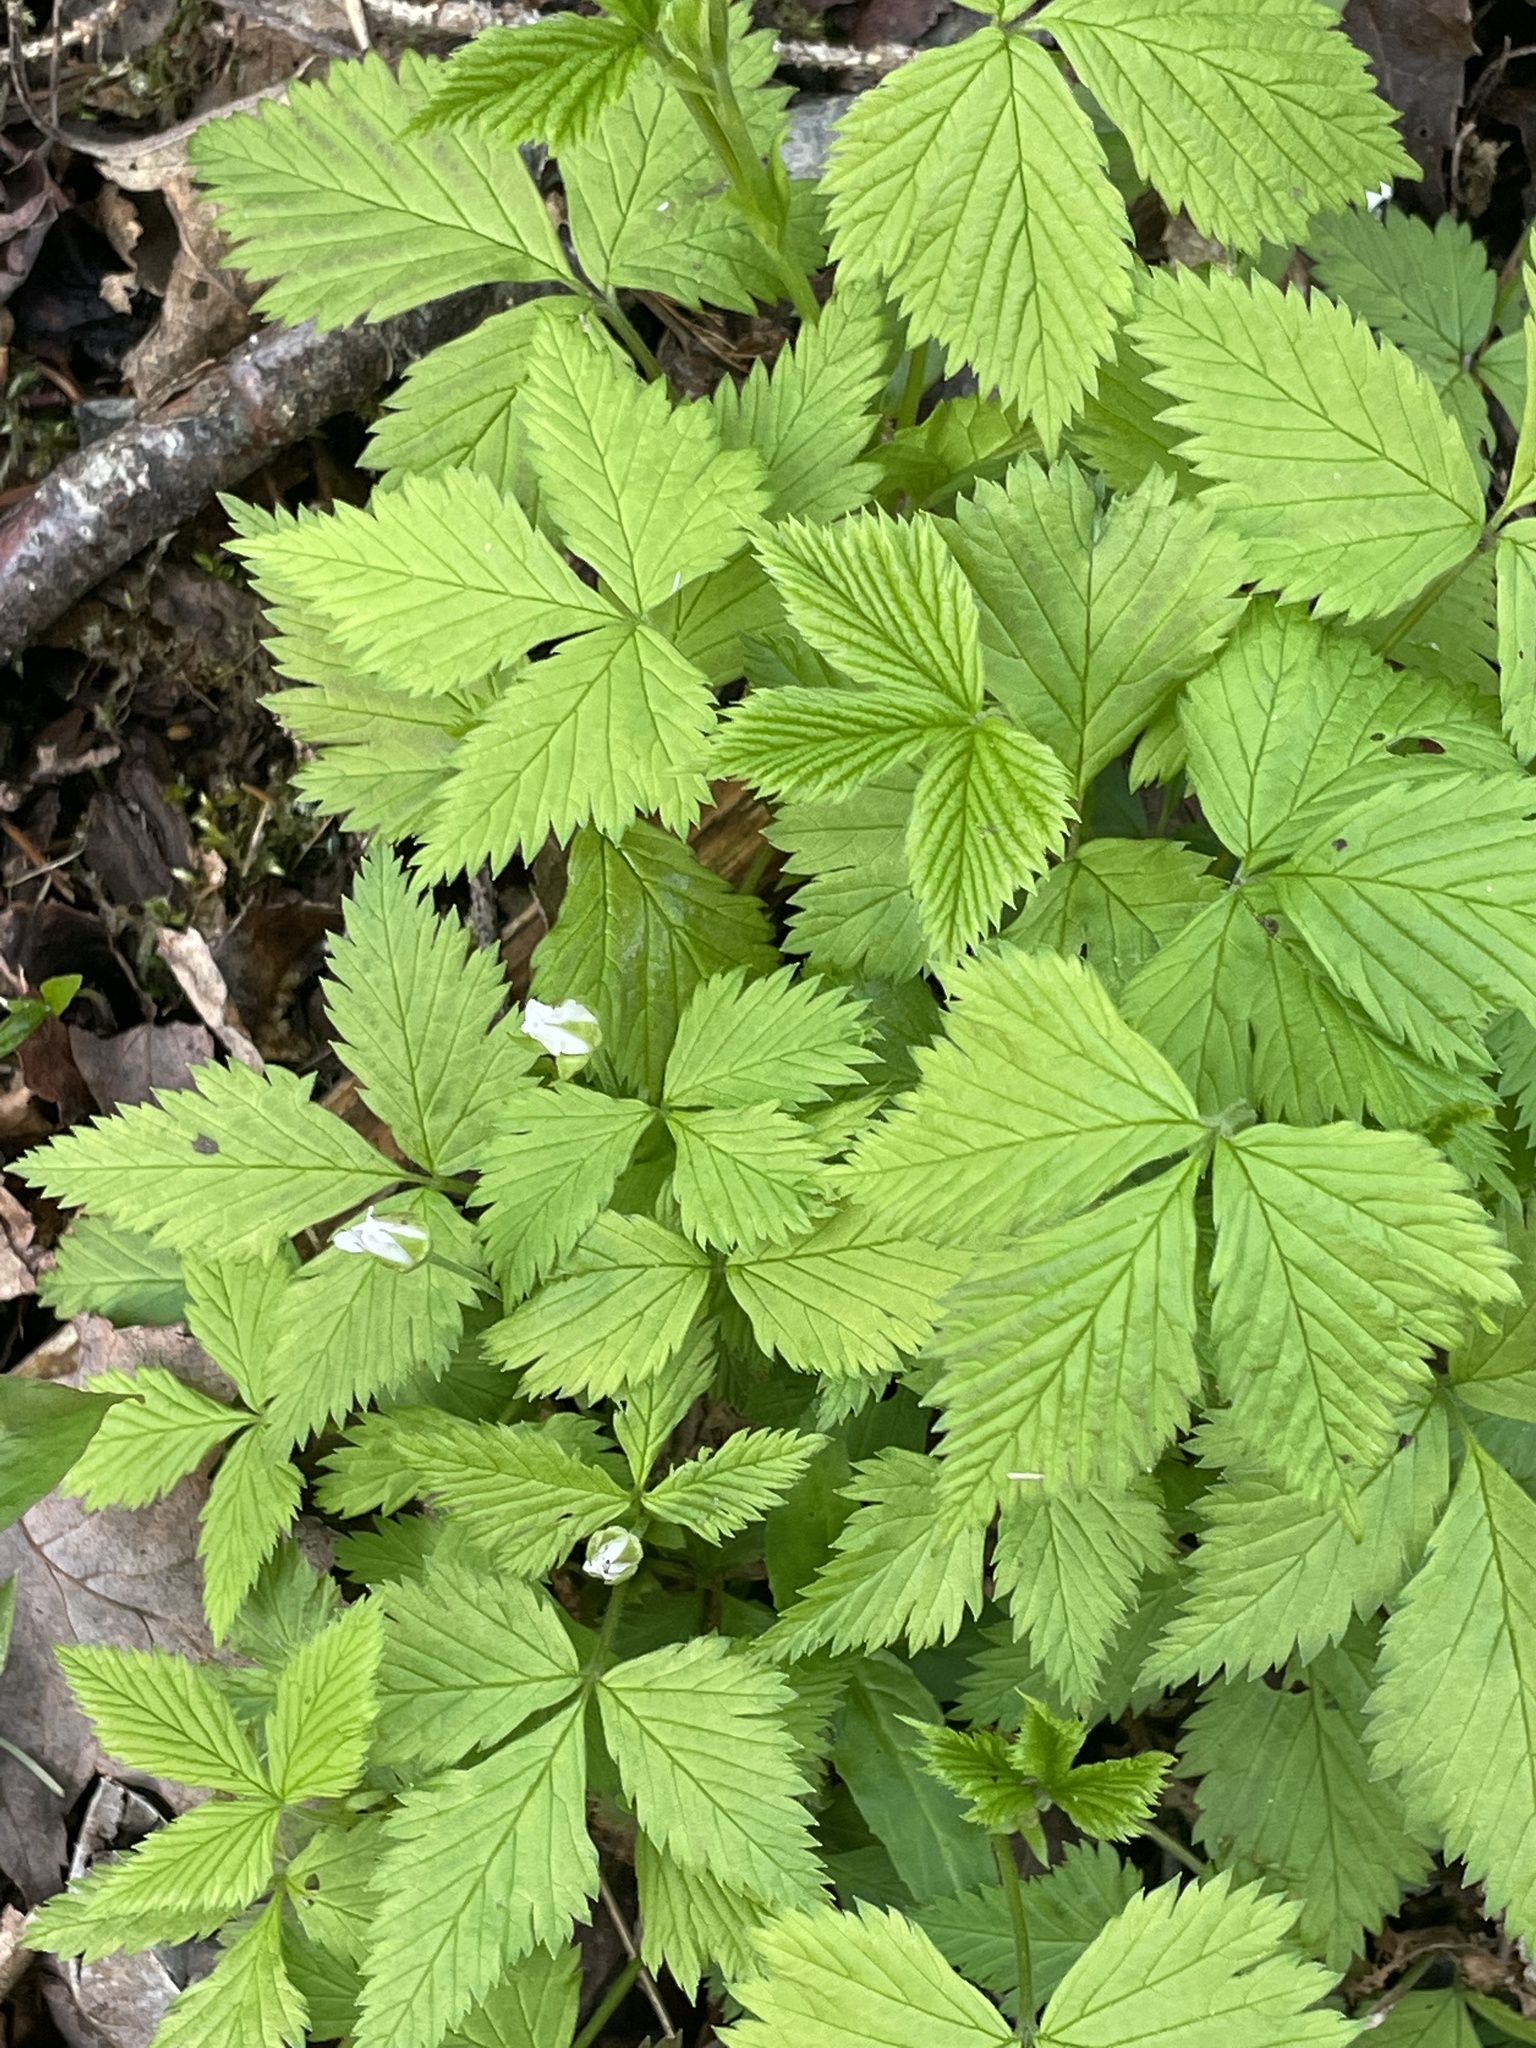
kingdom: Plantae
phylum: Tracheophyta
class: Magnoliopsida
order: Rosales
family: Rosaceae
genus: Rubus
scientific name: Rubus pubescens
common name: Dwarf raspberry
